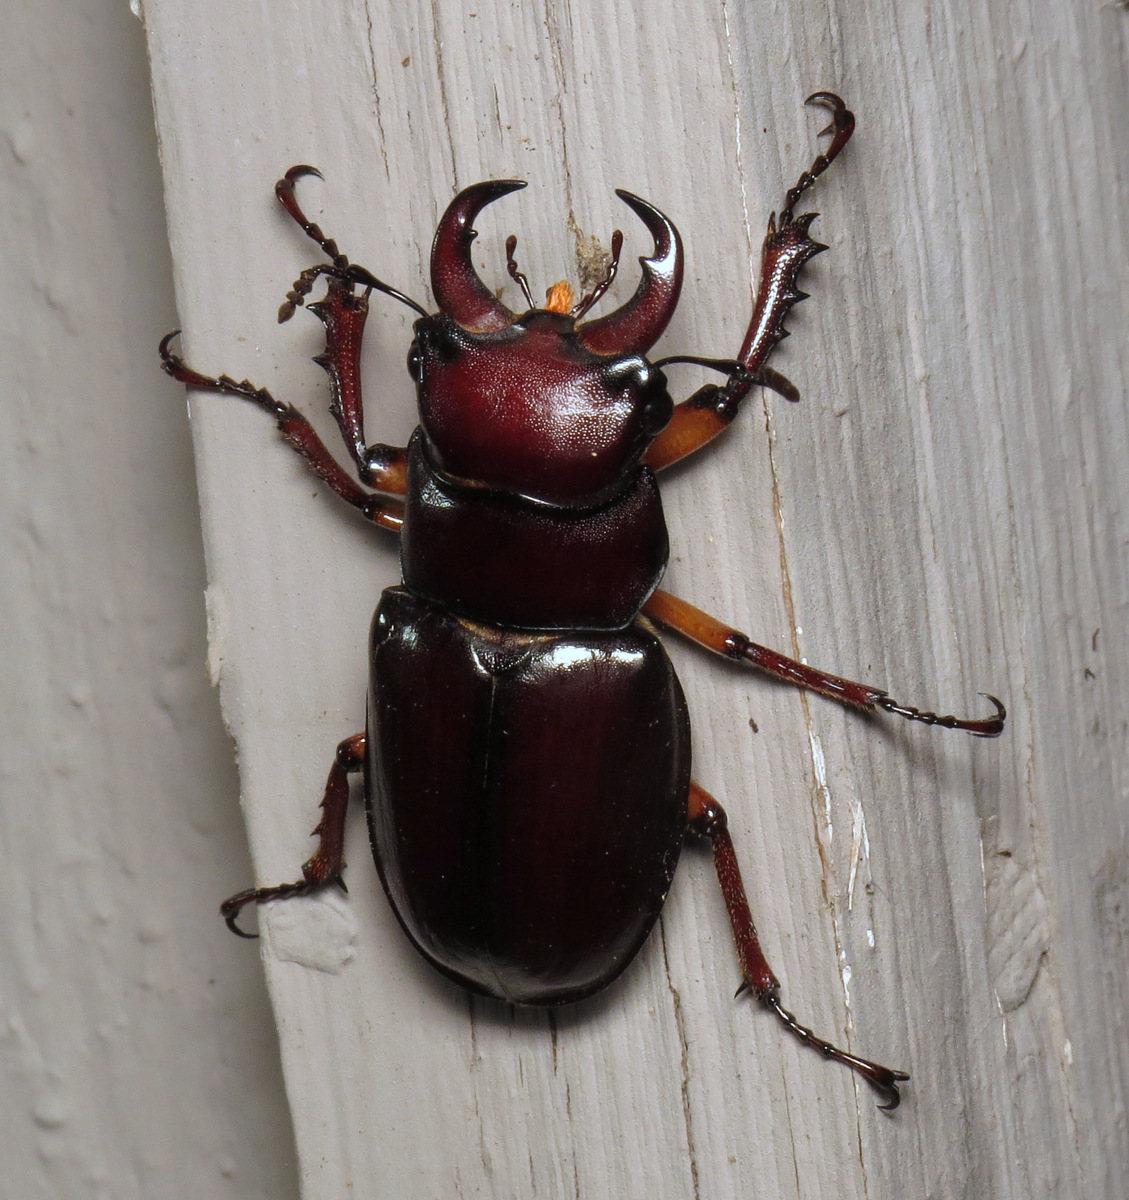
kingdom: Animalia
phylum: Arthropoda
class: Insecta
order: Coleoptera
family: Lucanidae
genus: Lucanus
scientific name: Lucanus capreolus
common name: Stag beetle
